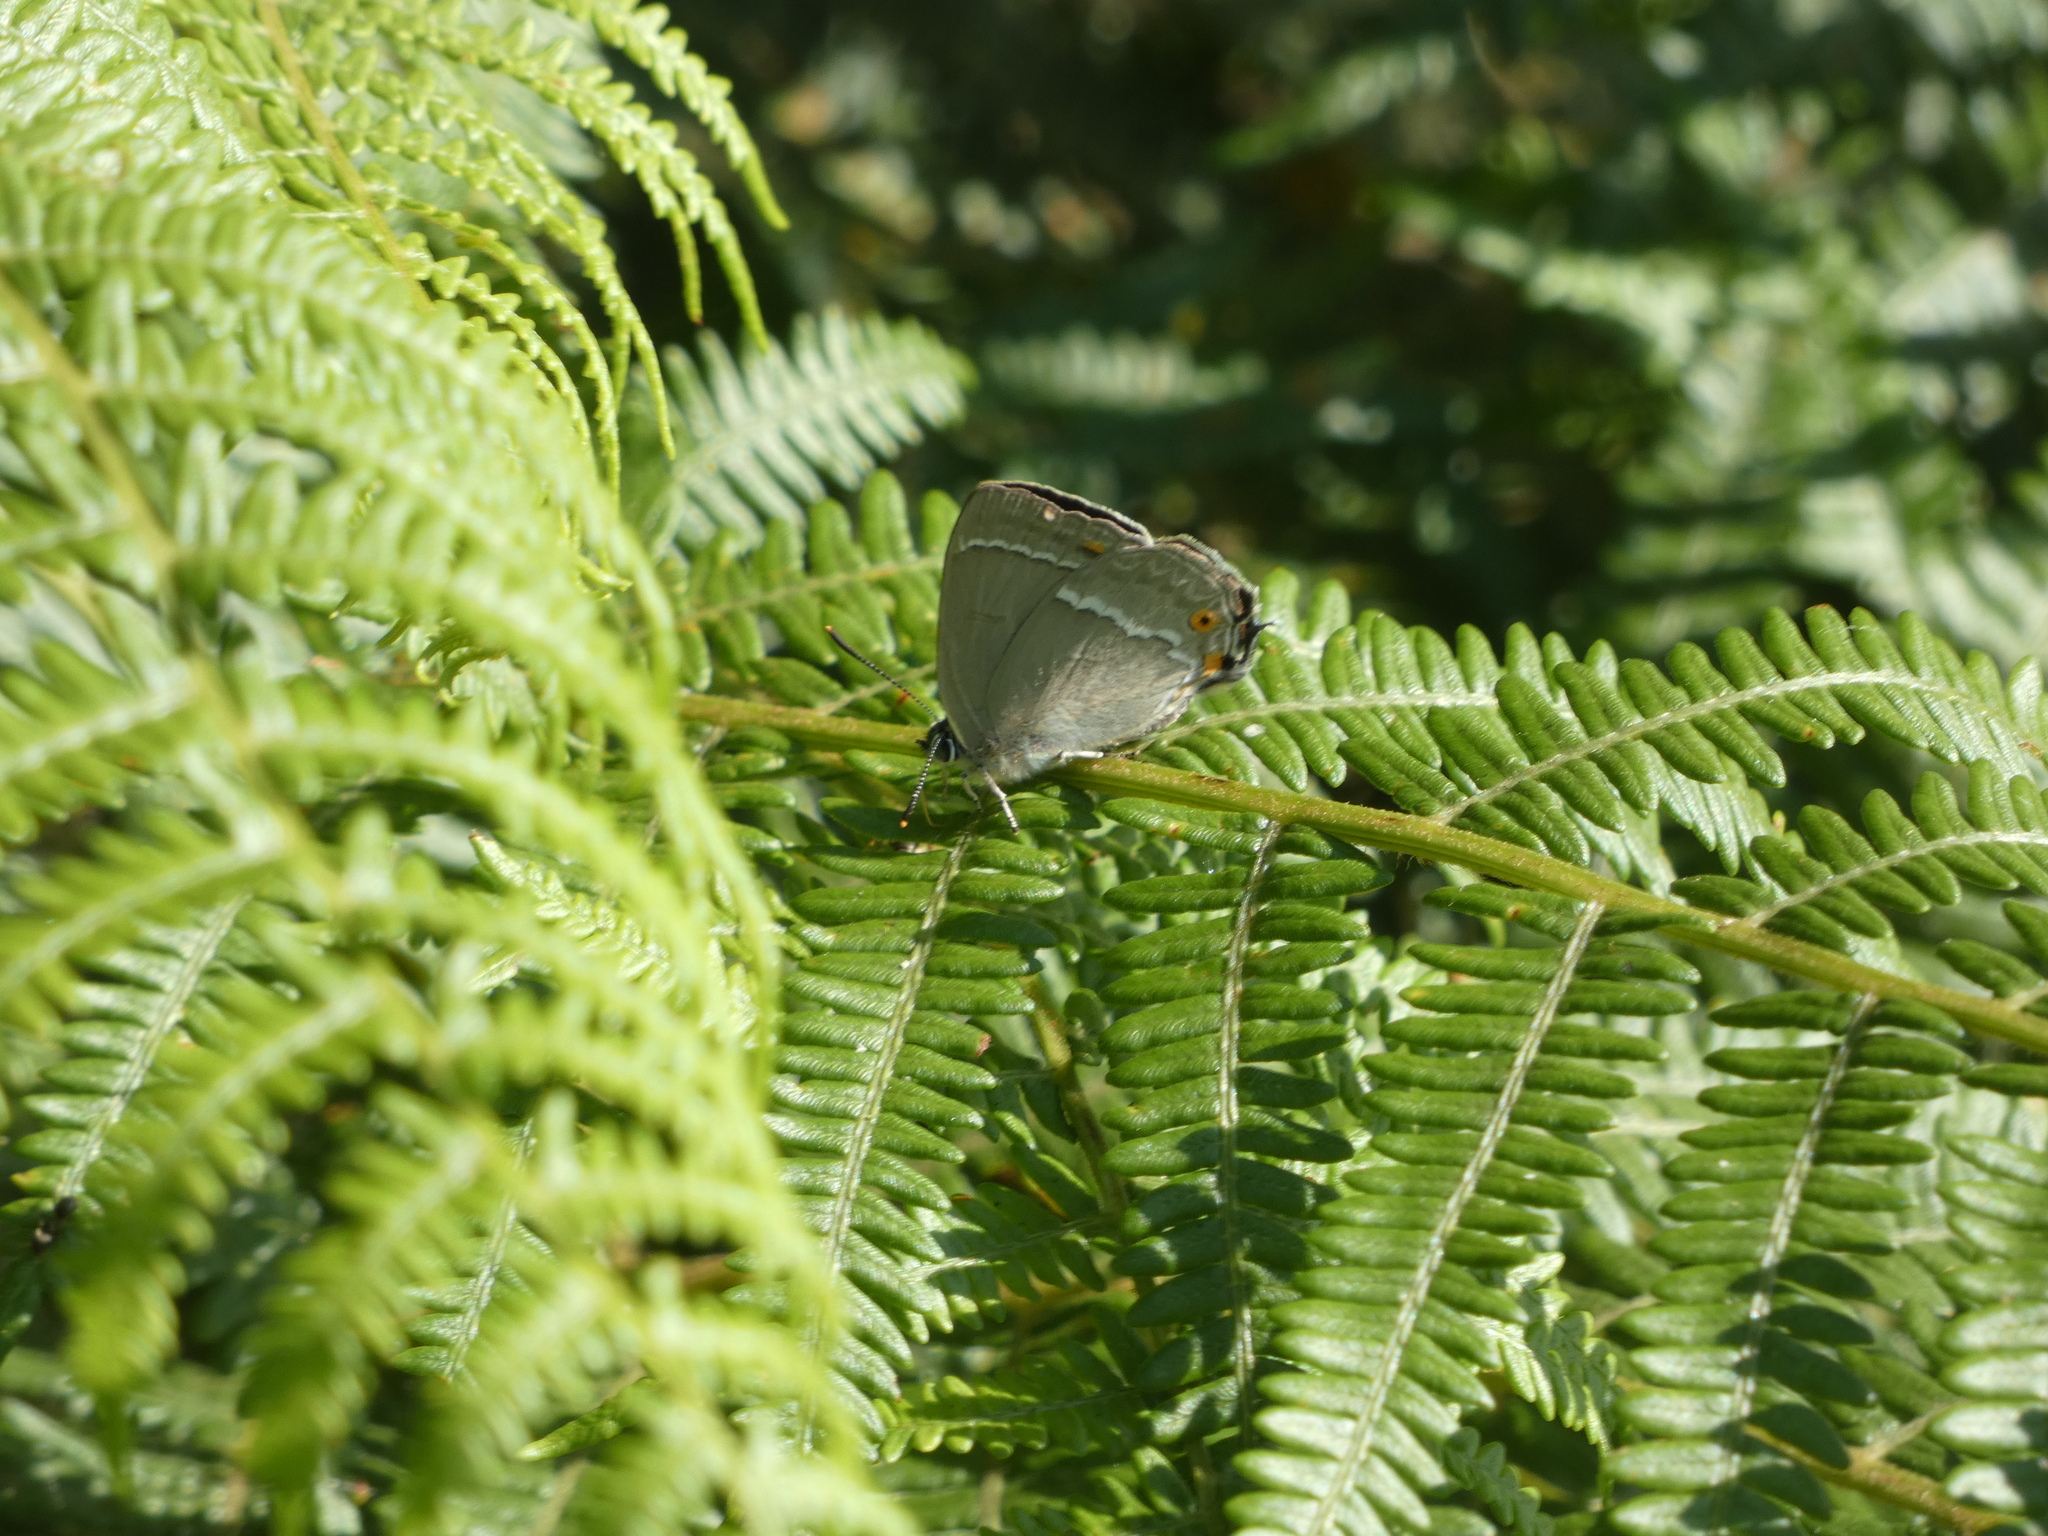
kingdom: Animalia
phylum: Arthropoda
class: Insecta
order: Lepidoptera
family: Lycaenidae
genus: Quercusia
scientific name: Quercusia quercus
